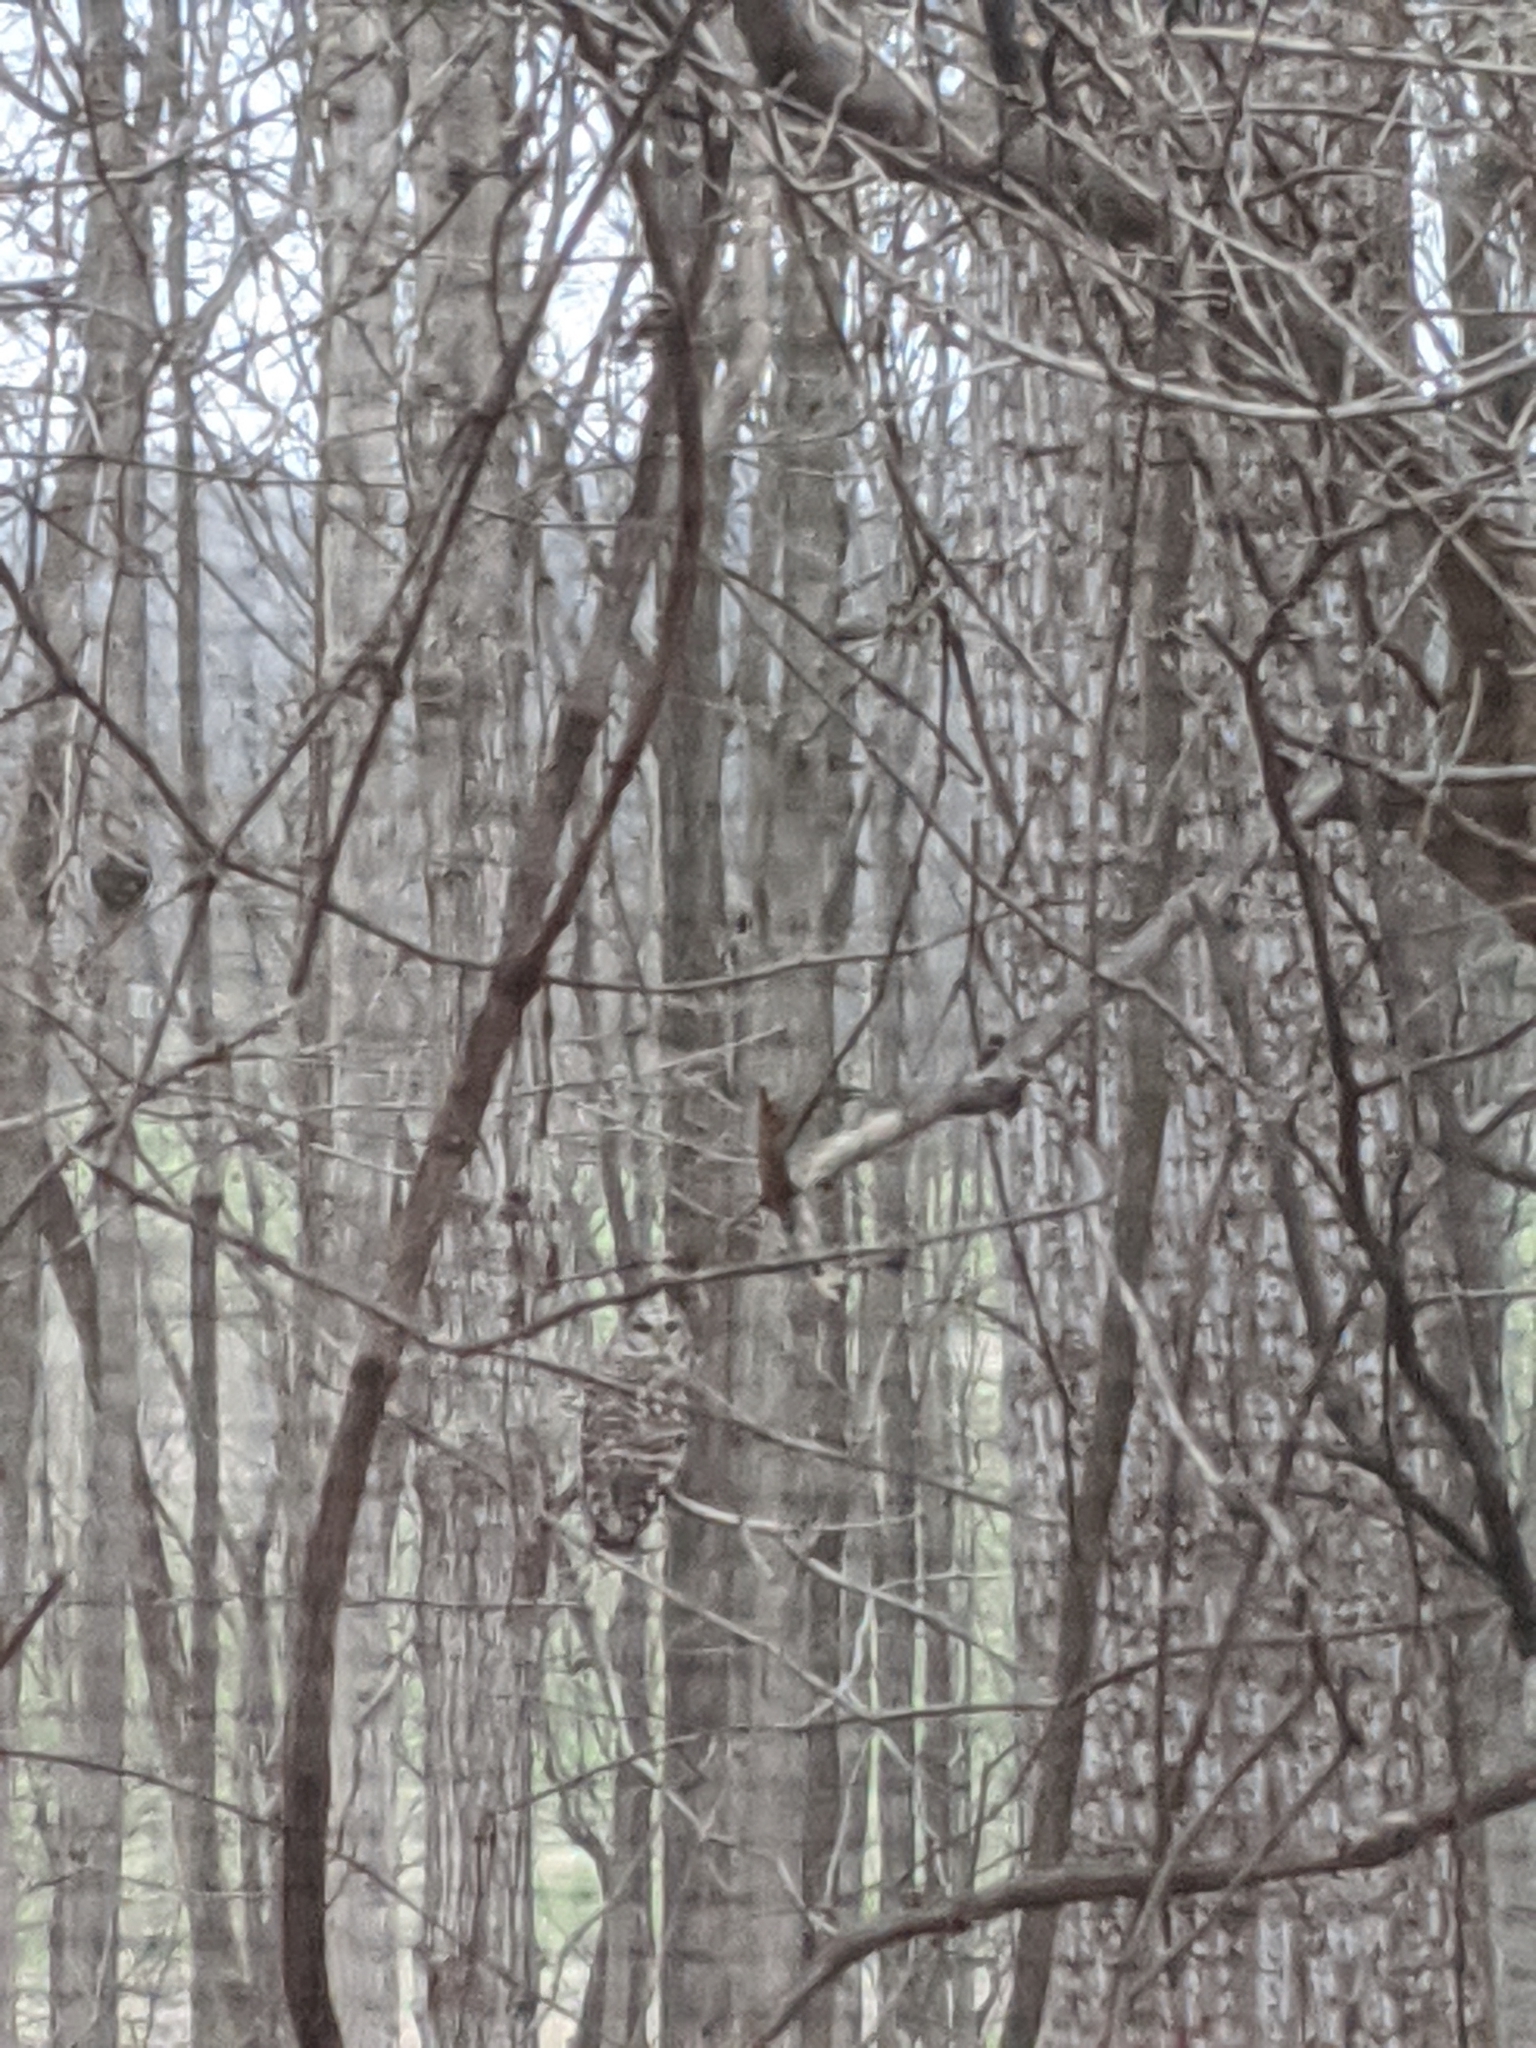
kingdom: Animalia
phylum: Chordata
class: Aves
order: Strigiformes
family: Strigidae
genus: Strix
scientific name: Strix varia
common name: Barred owl
